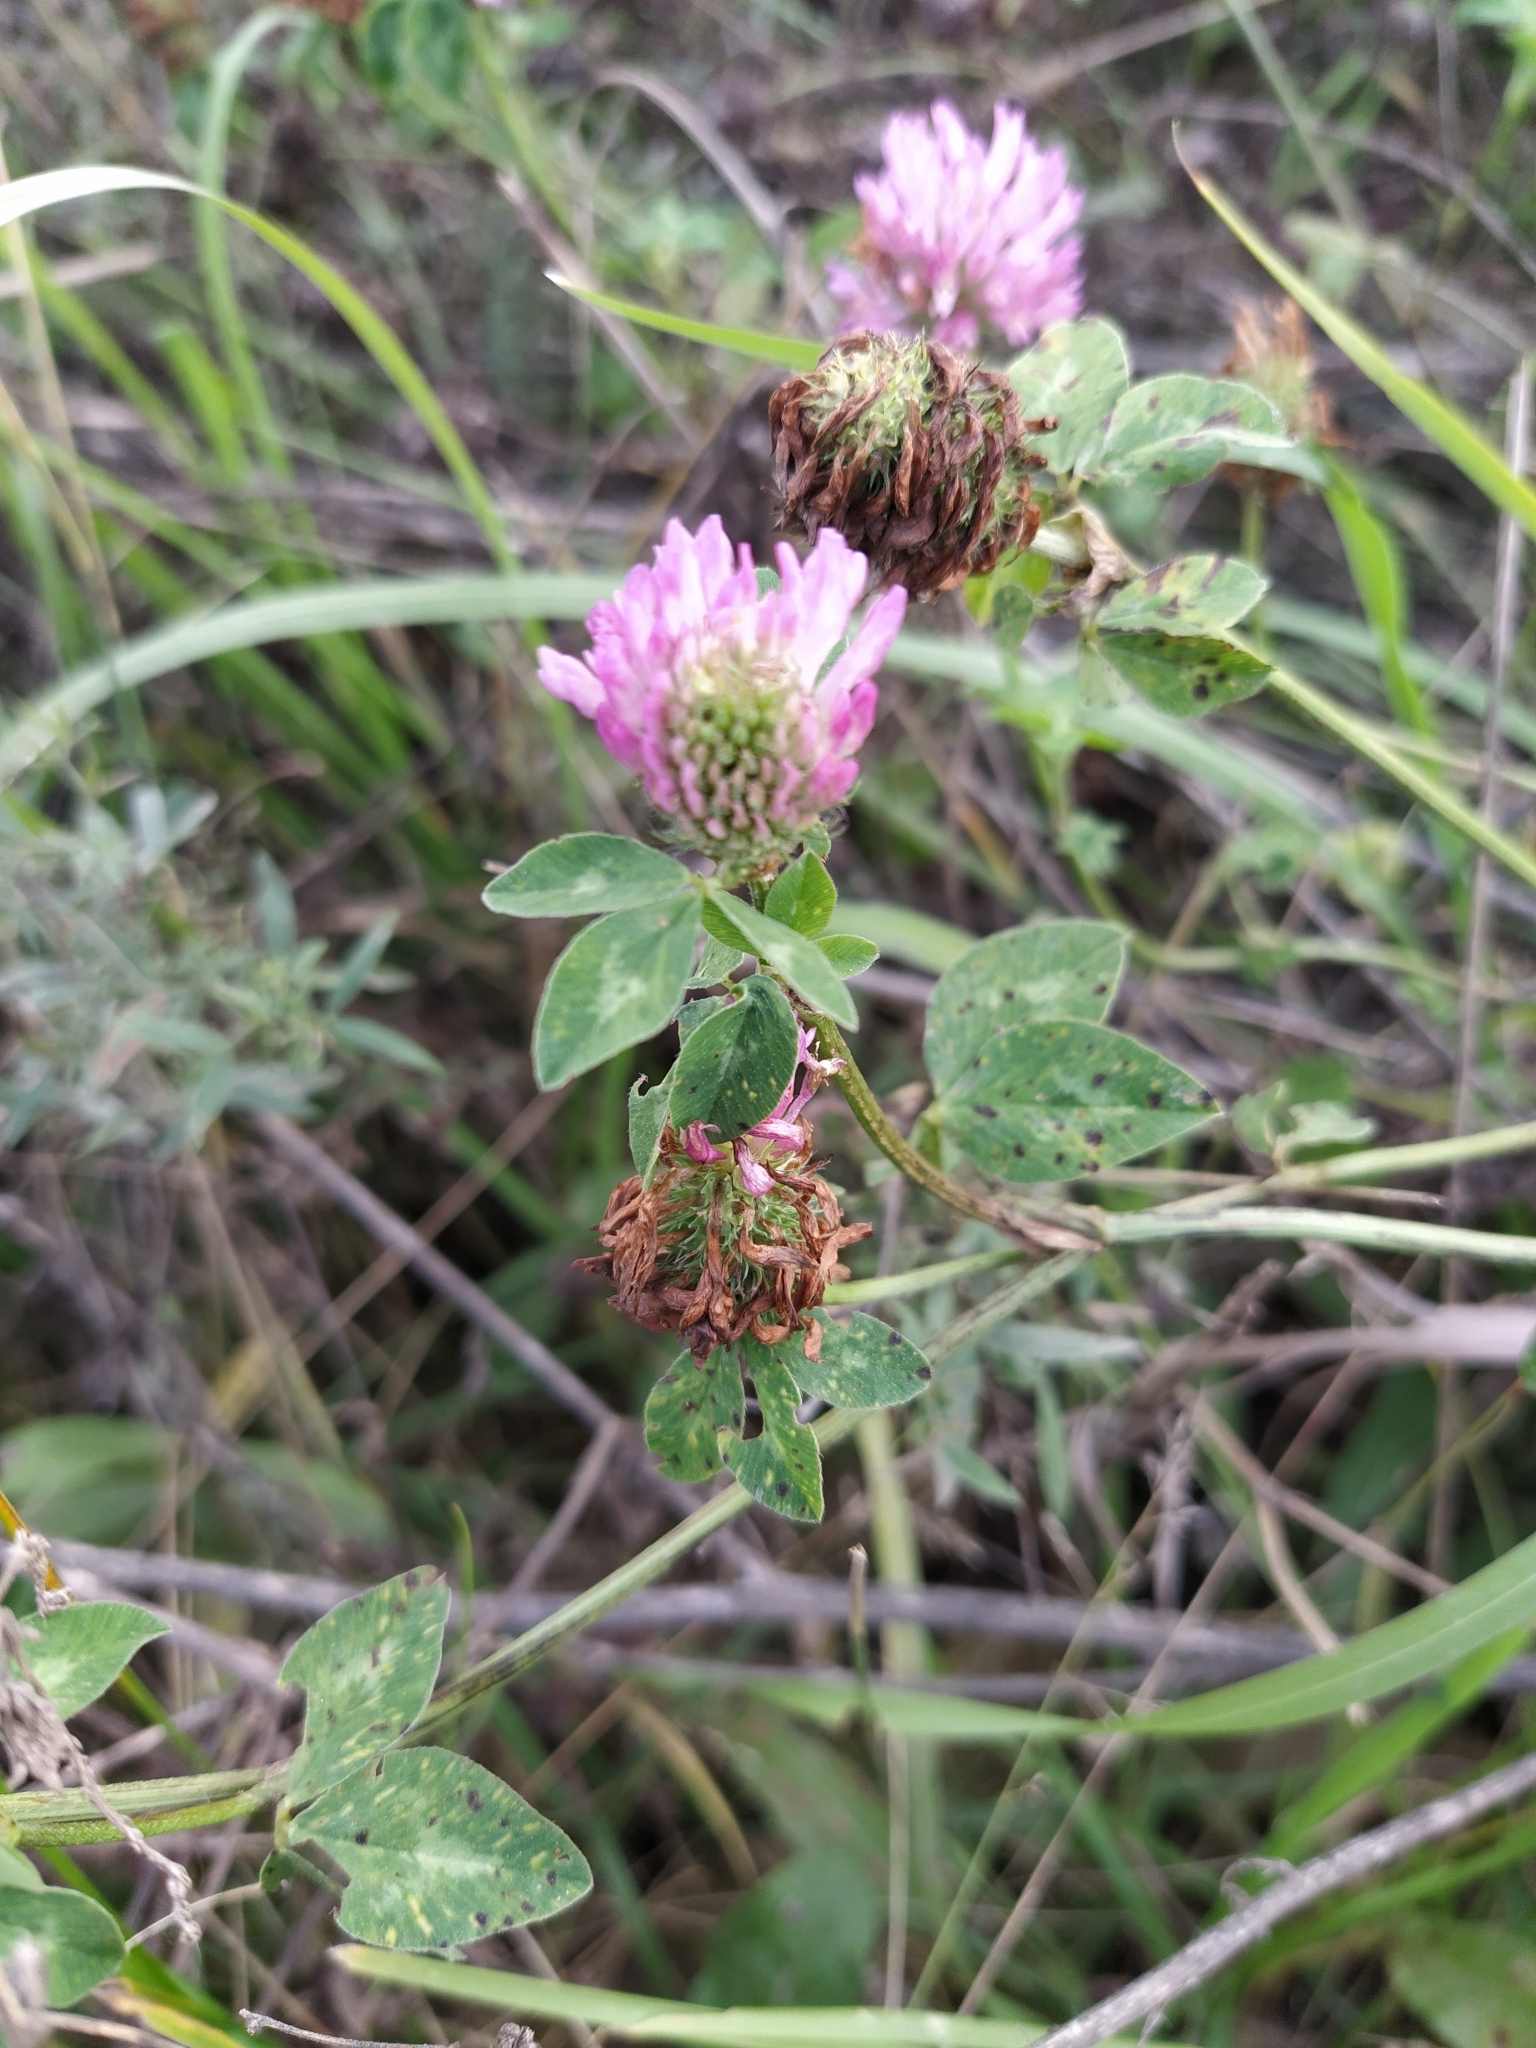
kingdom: Plantae
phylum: Tracheophyta
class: Magnoliopsida
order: Fabales
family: Fabaceae
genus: Trifolium
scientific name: Trifolium pratense
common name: Red clover
